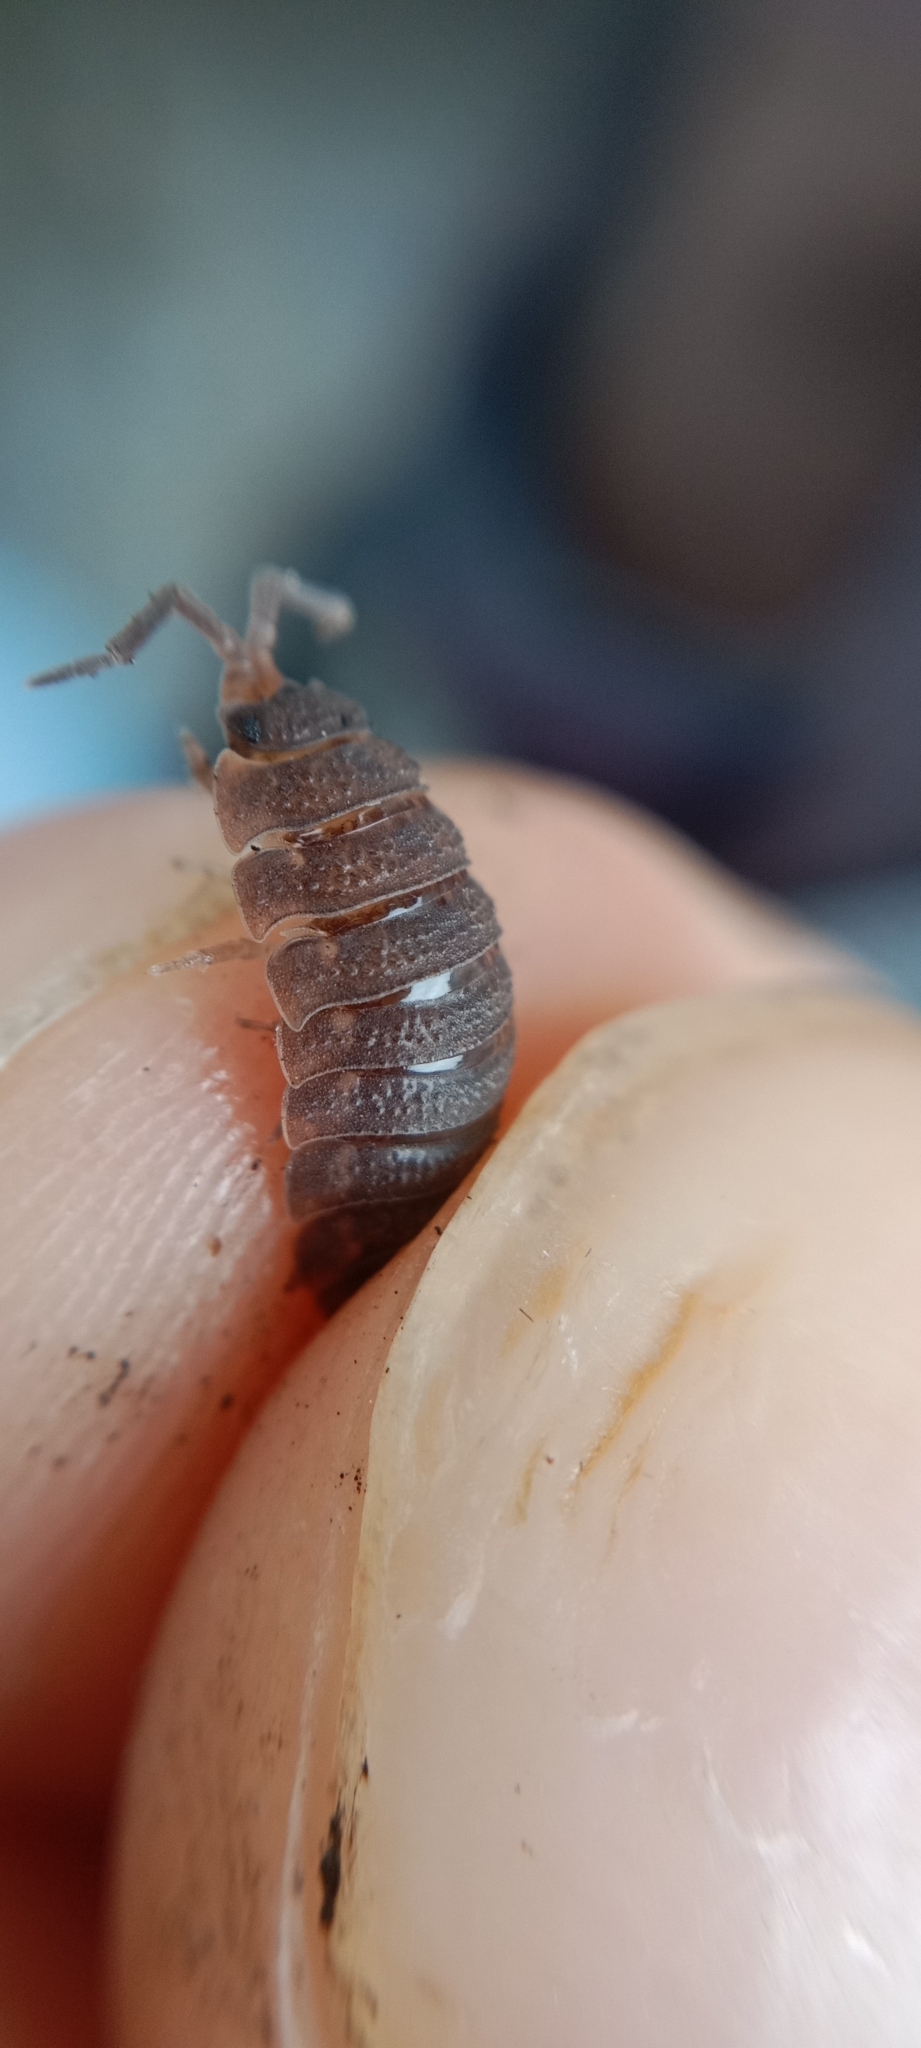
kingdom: Animalia
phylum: Arthropoda
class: Malacostraca
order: Isopoda
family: Porcellionidae
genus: Porcellio
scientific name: Porcellio scaber
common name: Common rough woodlouse
